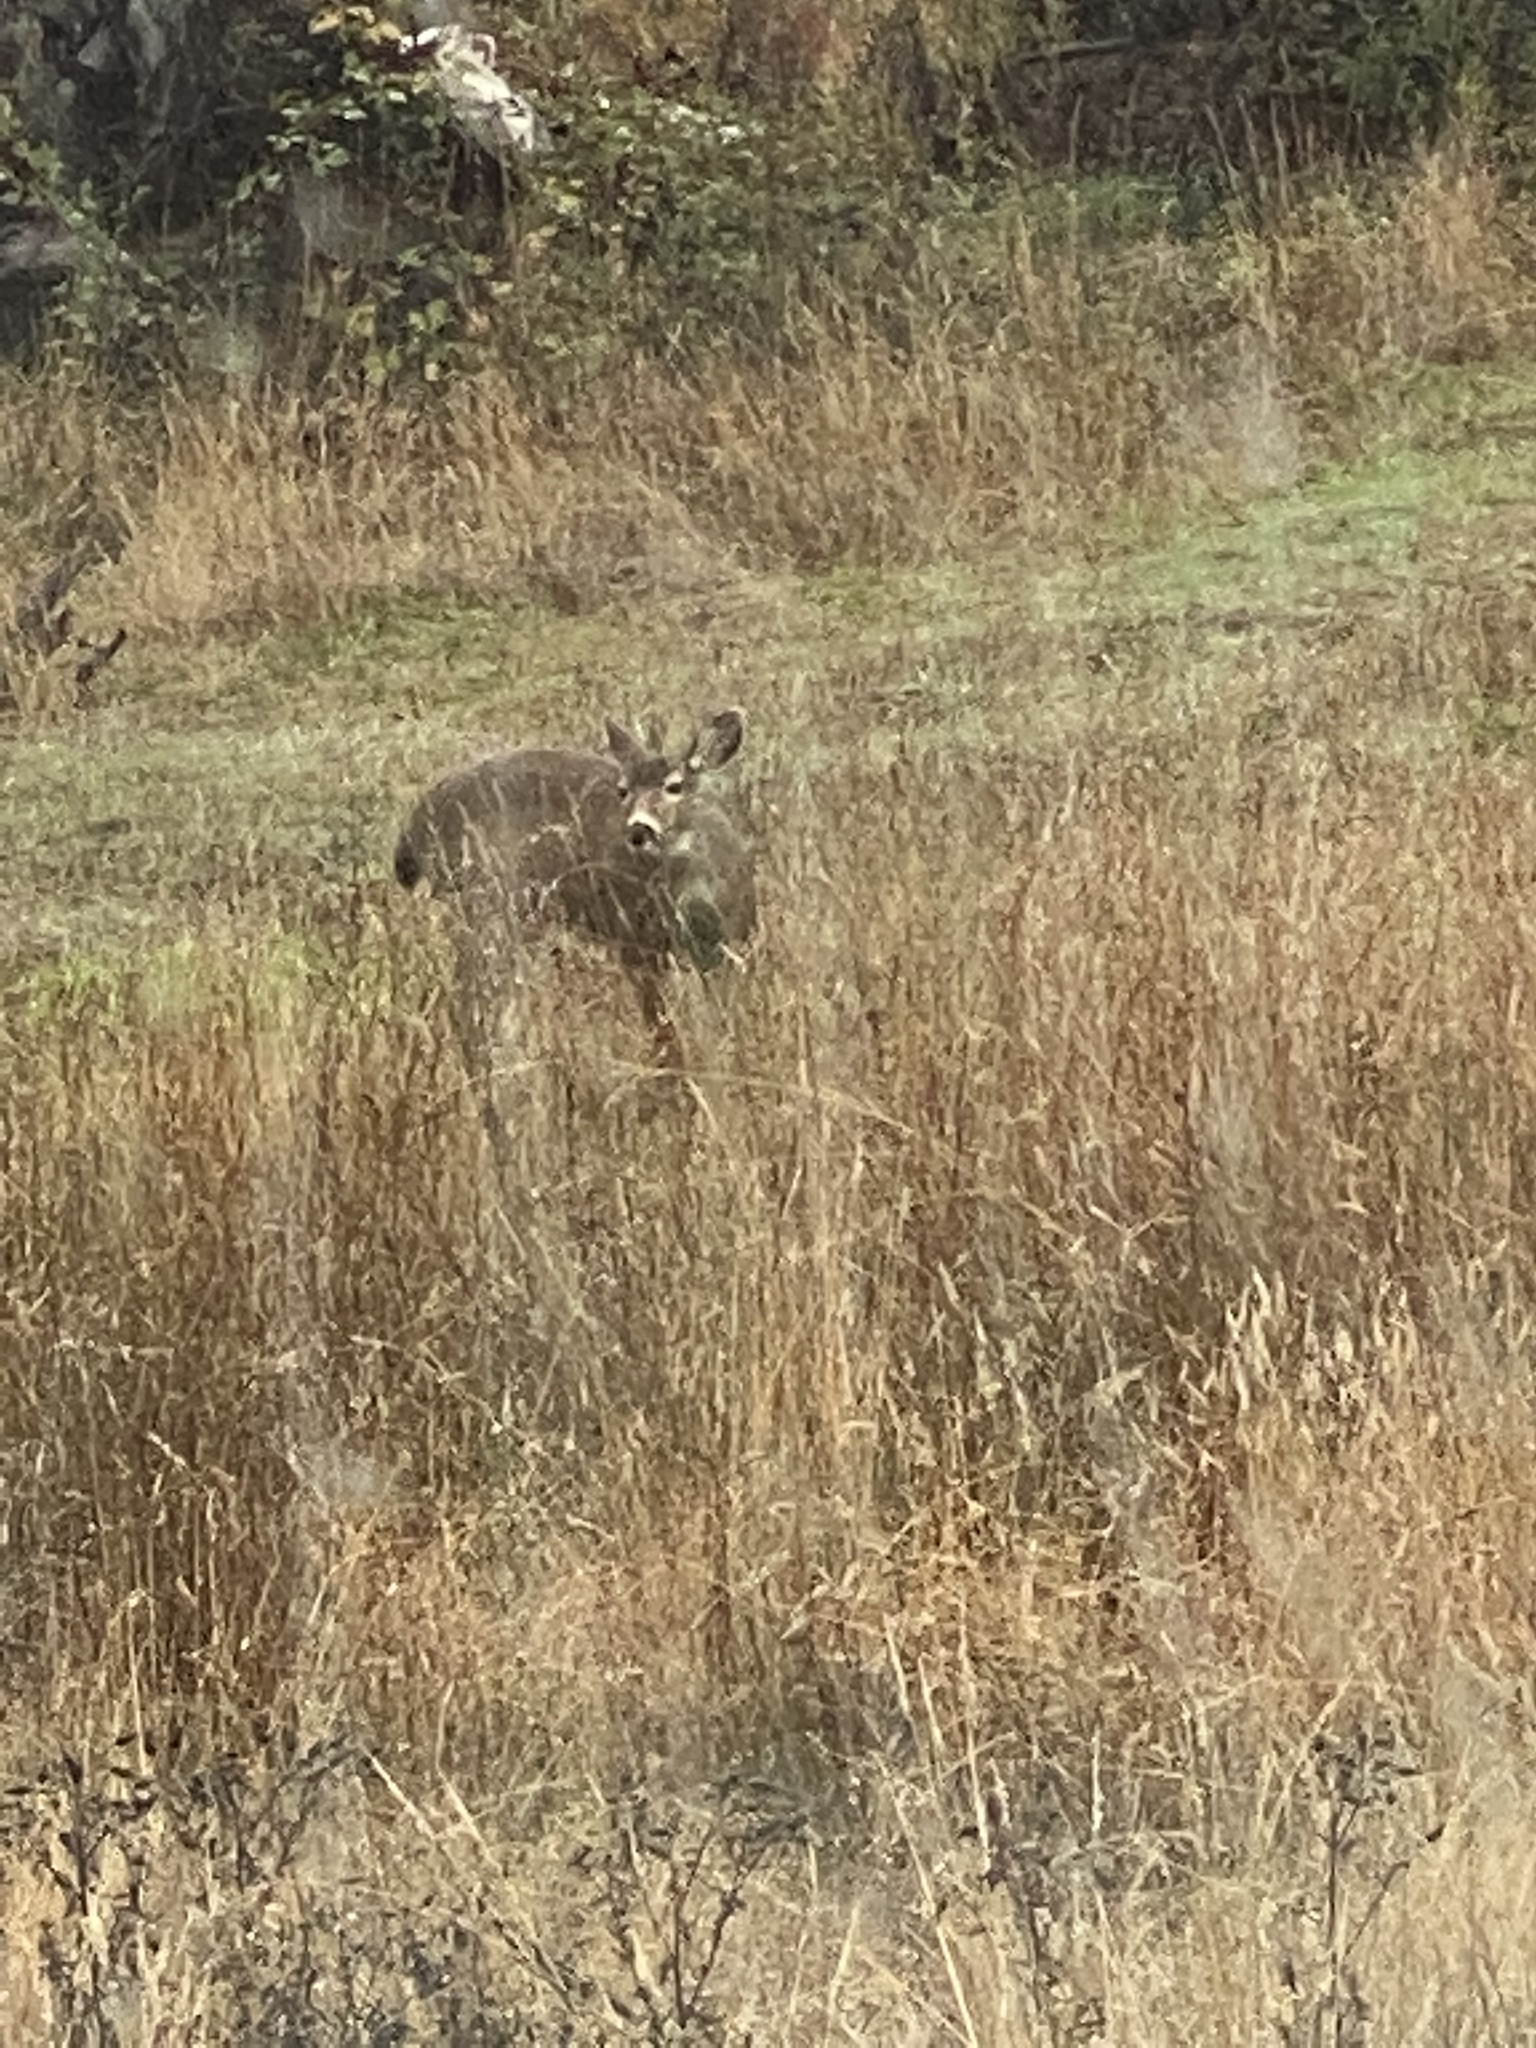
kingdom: Animalia
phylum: Chordata
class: Mammalia
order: Artiodactyla
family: Cervidae
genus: Odocoileus
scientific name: Odocoileus hemionus
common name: Mule deer
